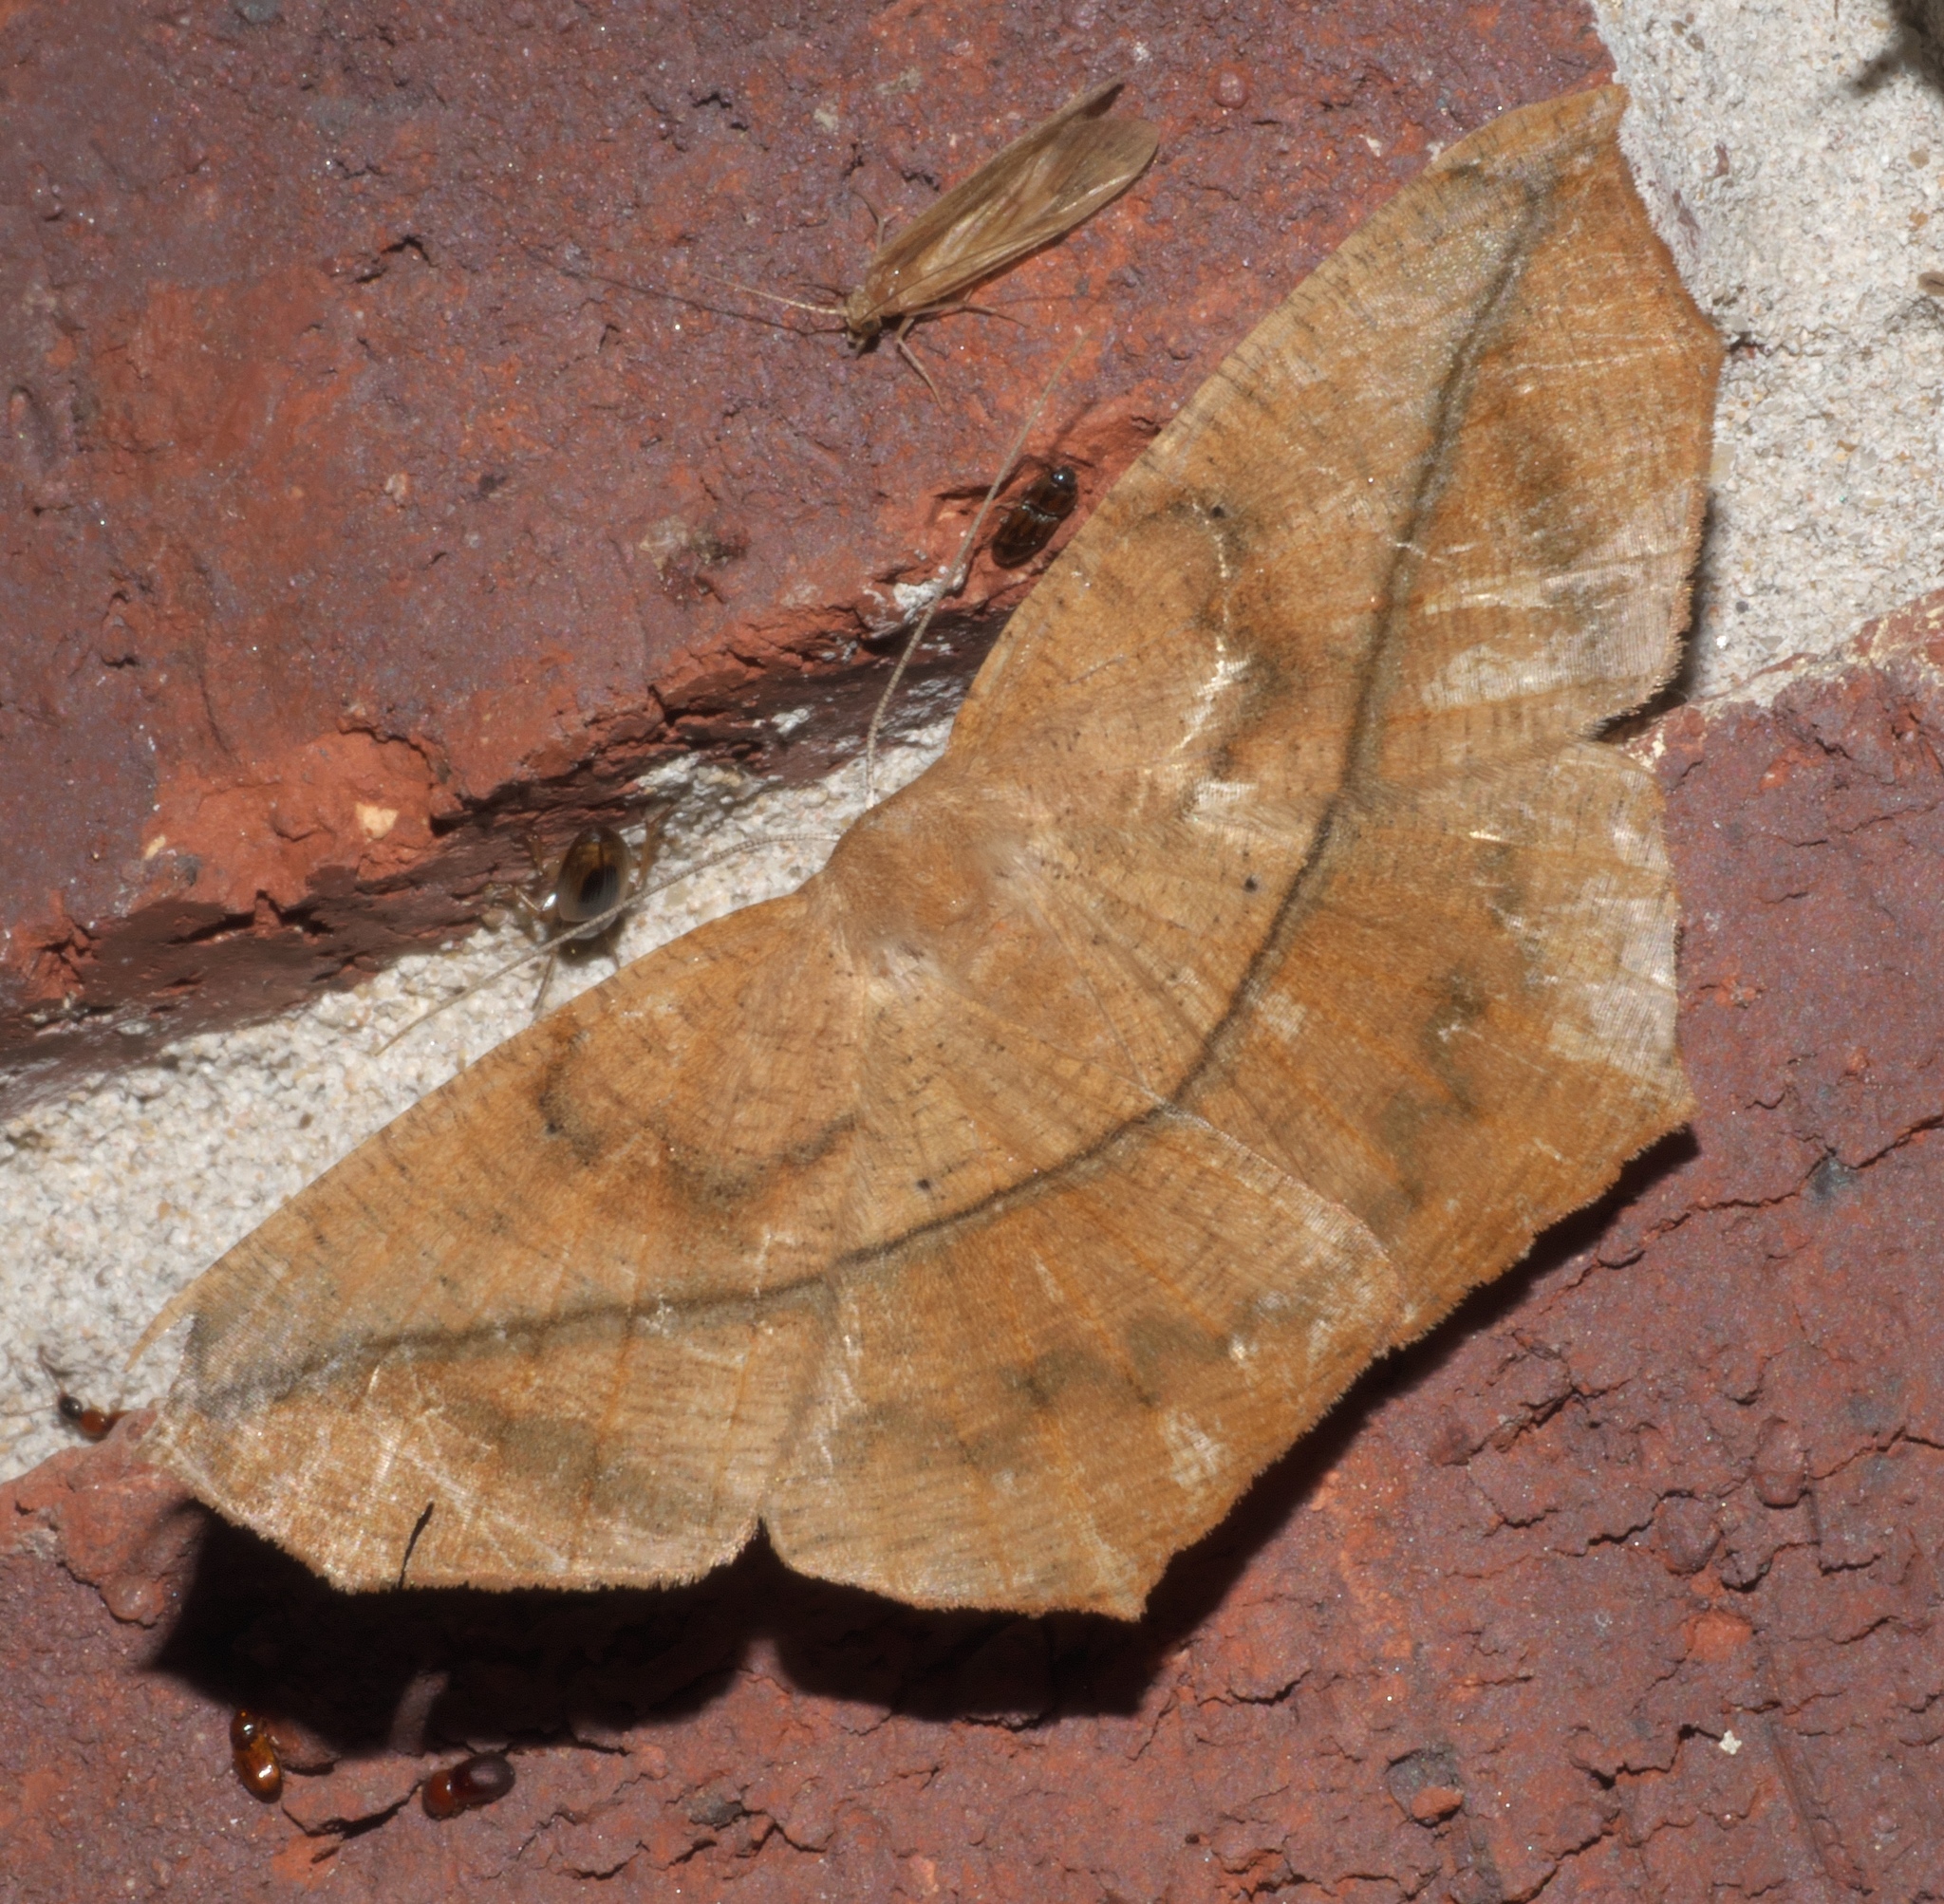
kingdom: Animalia
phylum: Arthropoda
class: Insecta
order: Lepidoptera
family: Geometridae
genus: Prochoerodes
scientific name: Prochoerodes lineola
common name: Large maple spanworm
